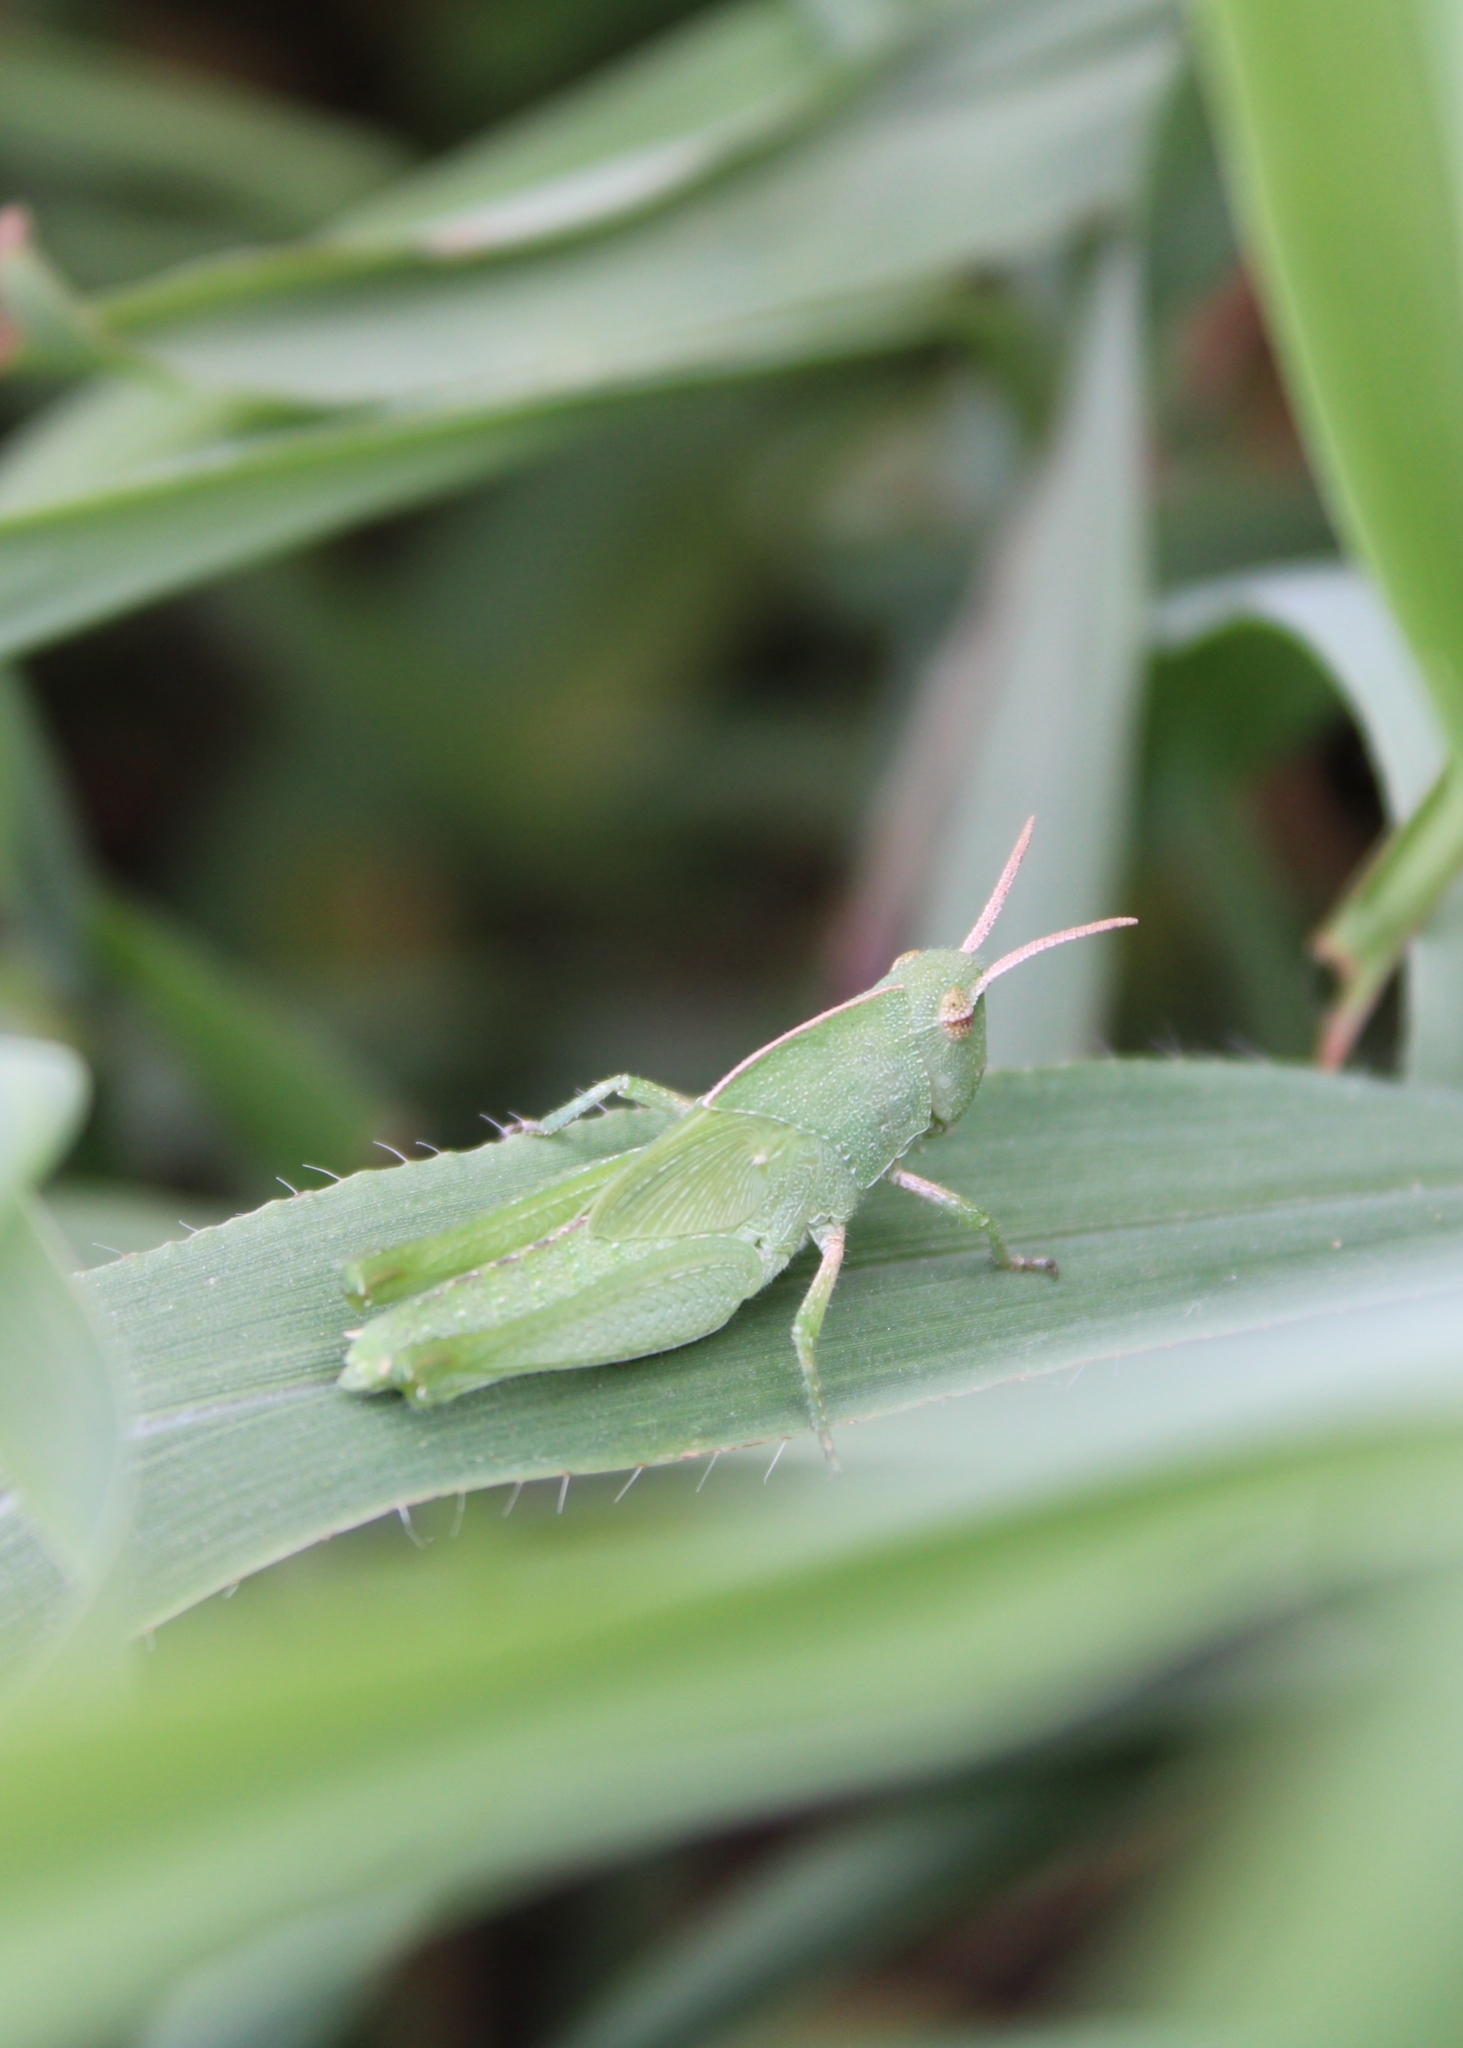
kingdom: Animalia
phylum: Arthropoda
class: Insecta
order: Orthoptera
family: Acrididae
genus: Chortophaga
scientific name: Chortophaga viridifasciata
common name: Green-striped grasshopper
